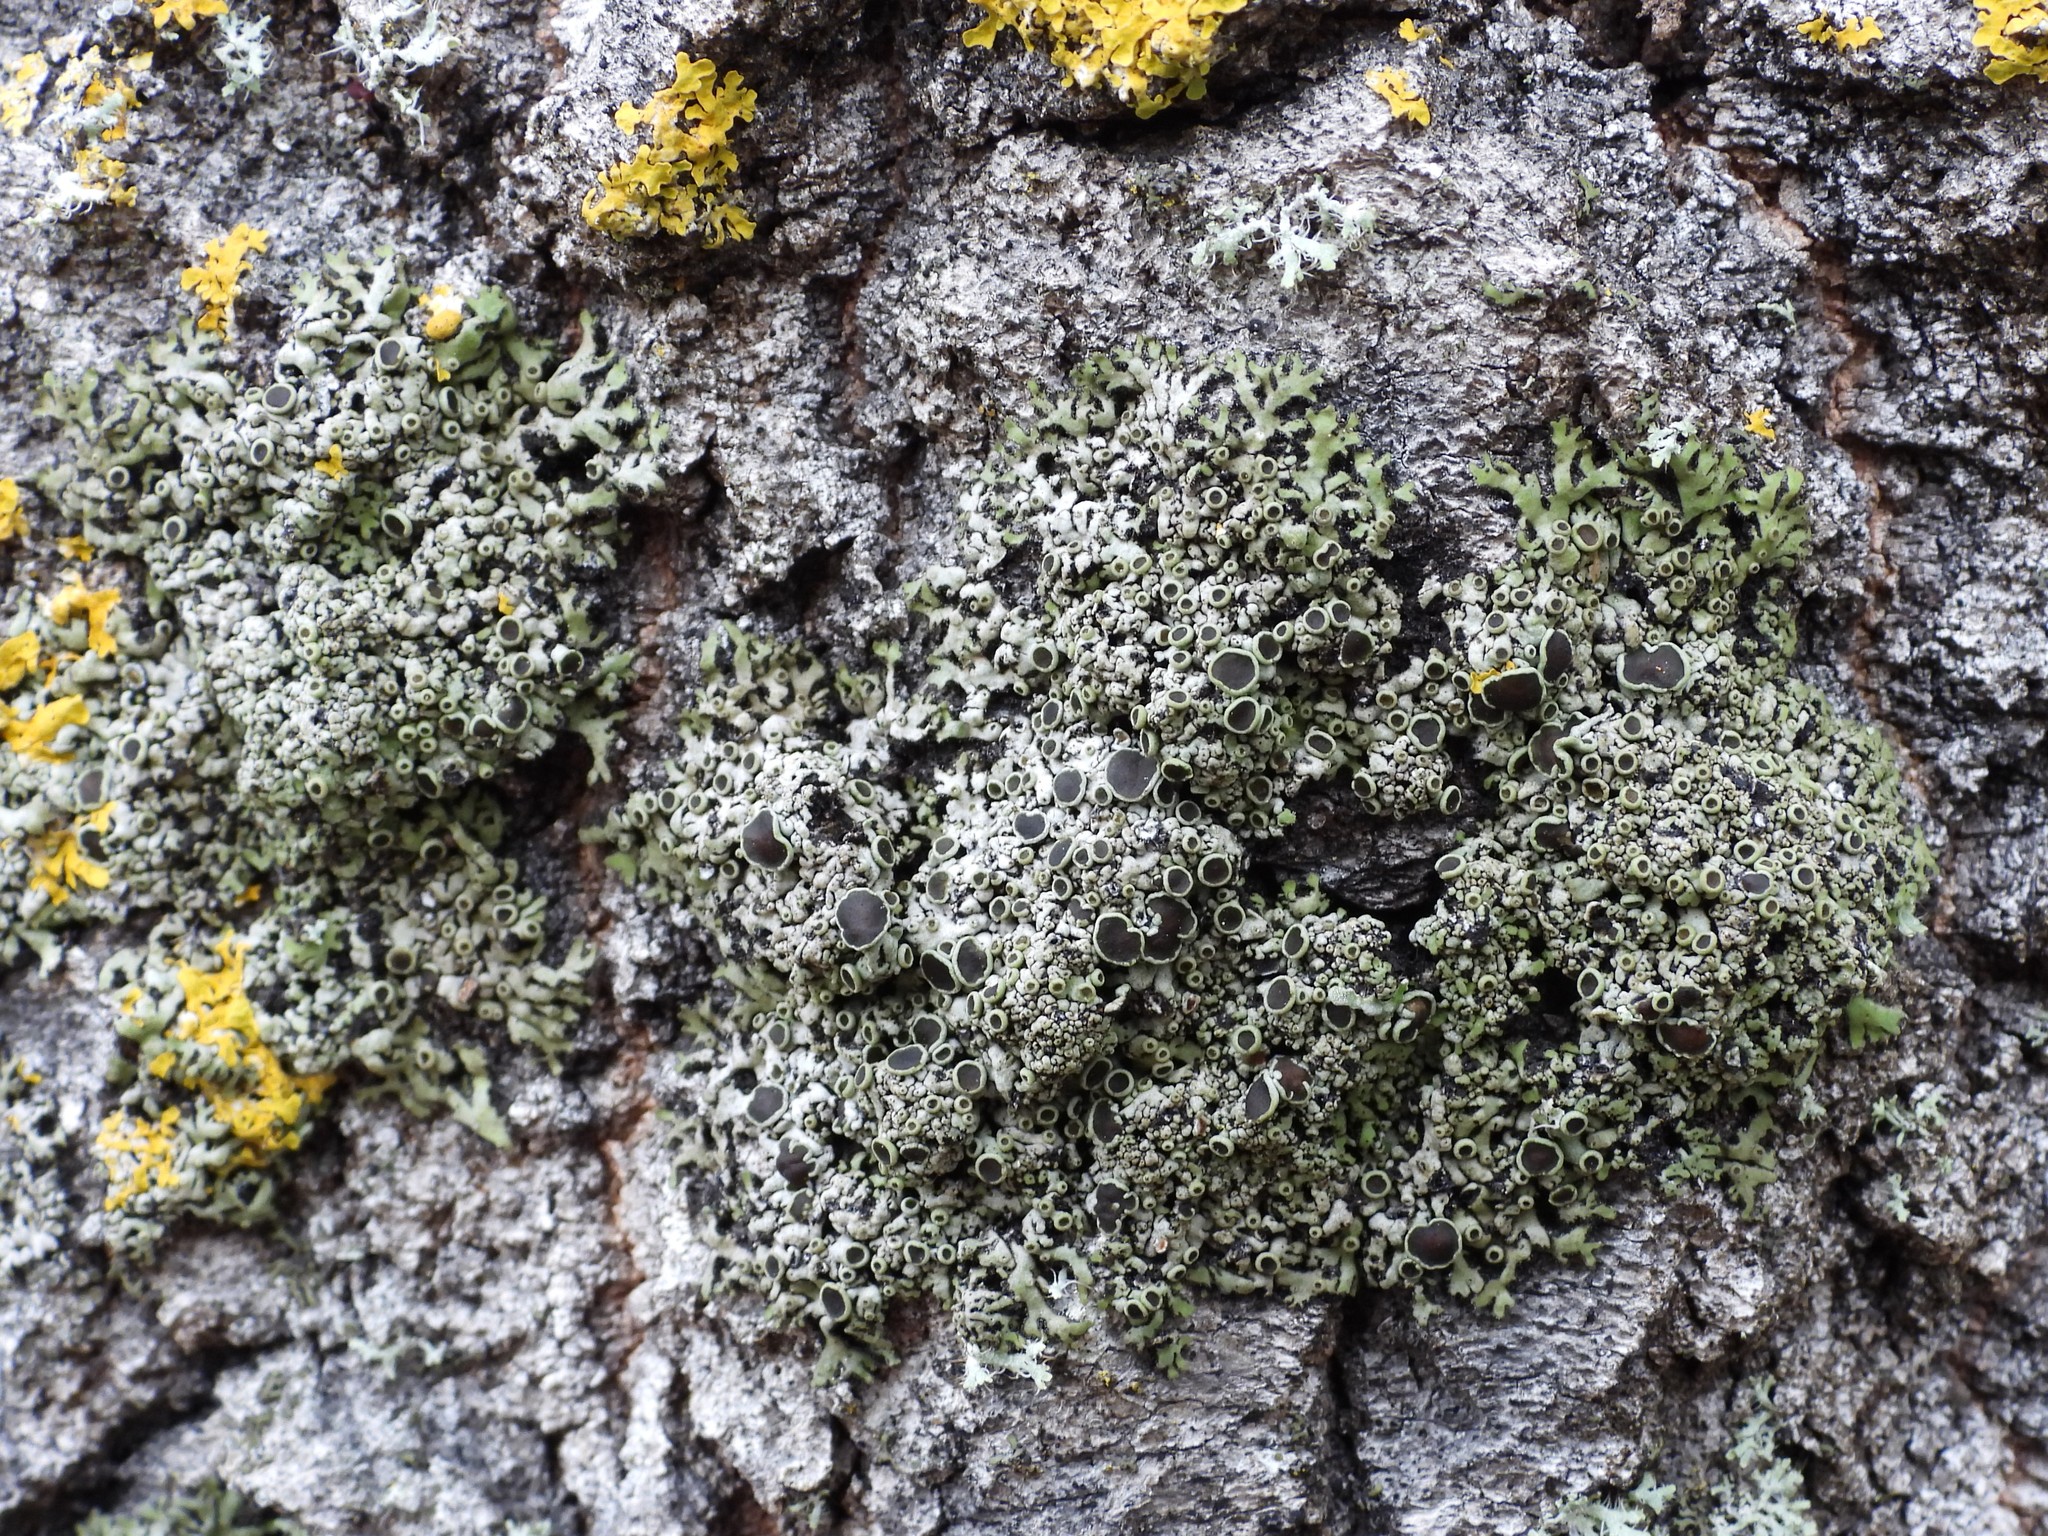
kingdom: Fungi
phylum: Ascomycota
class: Lecanoromycetes
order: Caliciales
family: Physciaceae
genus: Phaeophyscia
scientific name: Phaeophyscia ciliata
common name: Smooth shadow lichen
